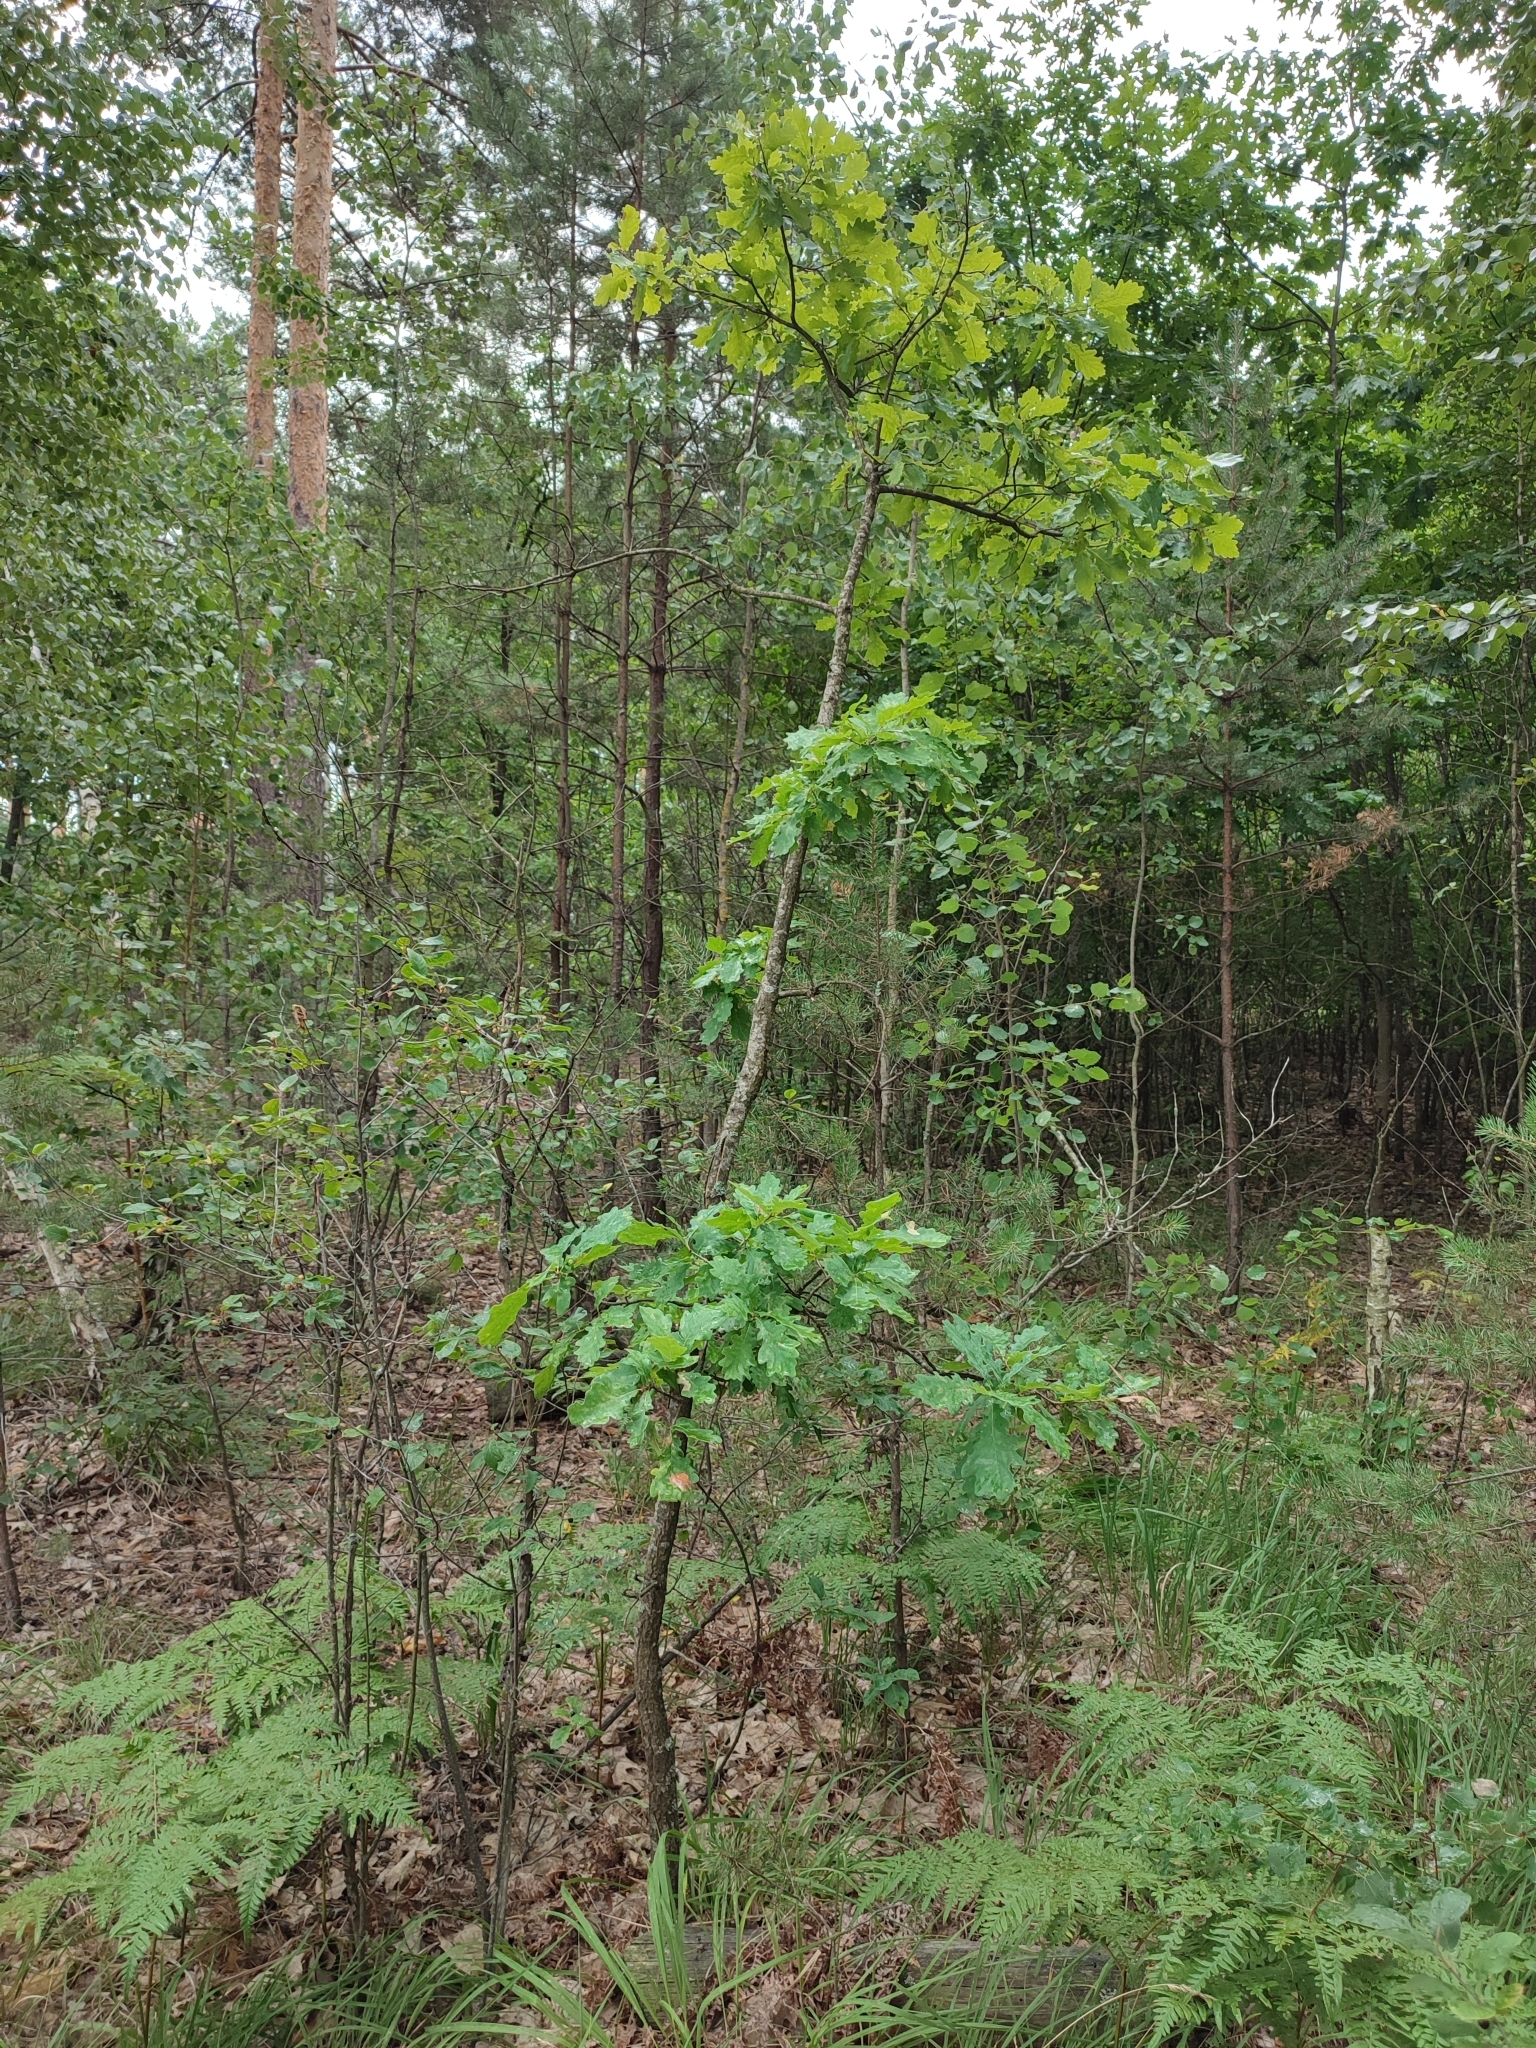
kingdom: Plantae
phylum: Tracheophyta
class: Magnoliopsida
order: Fagales
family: Fagaceae
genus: Quercus
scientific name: Quercus robur
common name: Pedunculate oak
